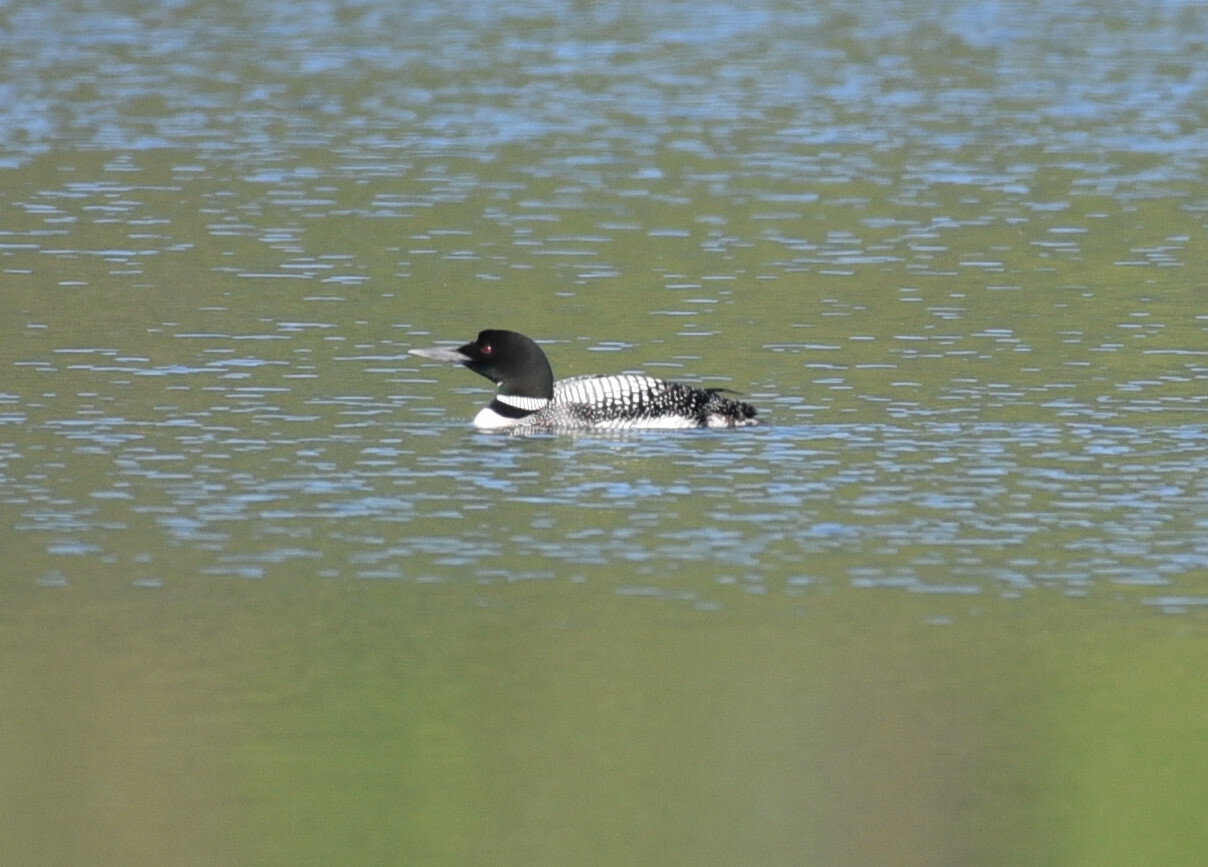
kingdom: Animalia
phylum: Chordata
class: Aves
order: Gaviiformes
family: Gaviidae
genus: Gavia
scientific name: Gavia immer
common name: Common loon
